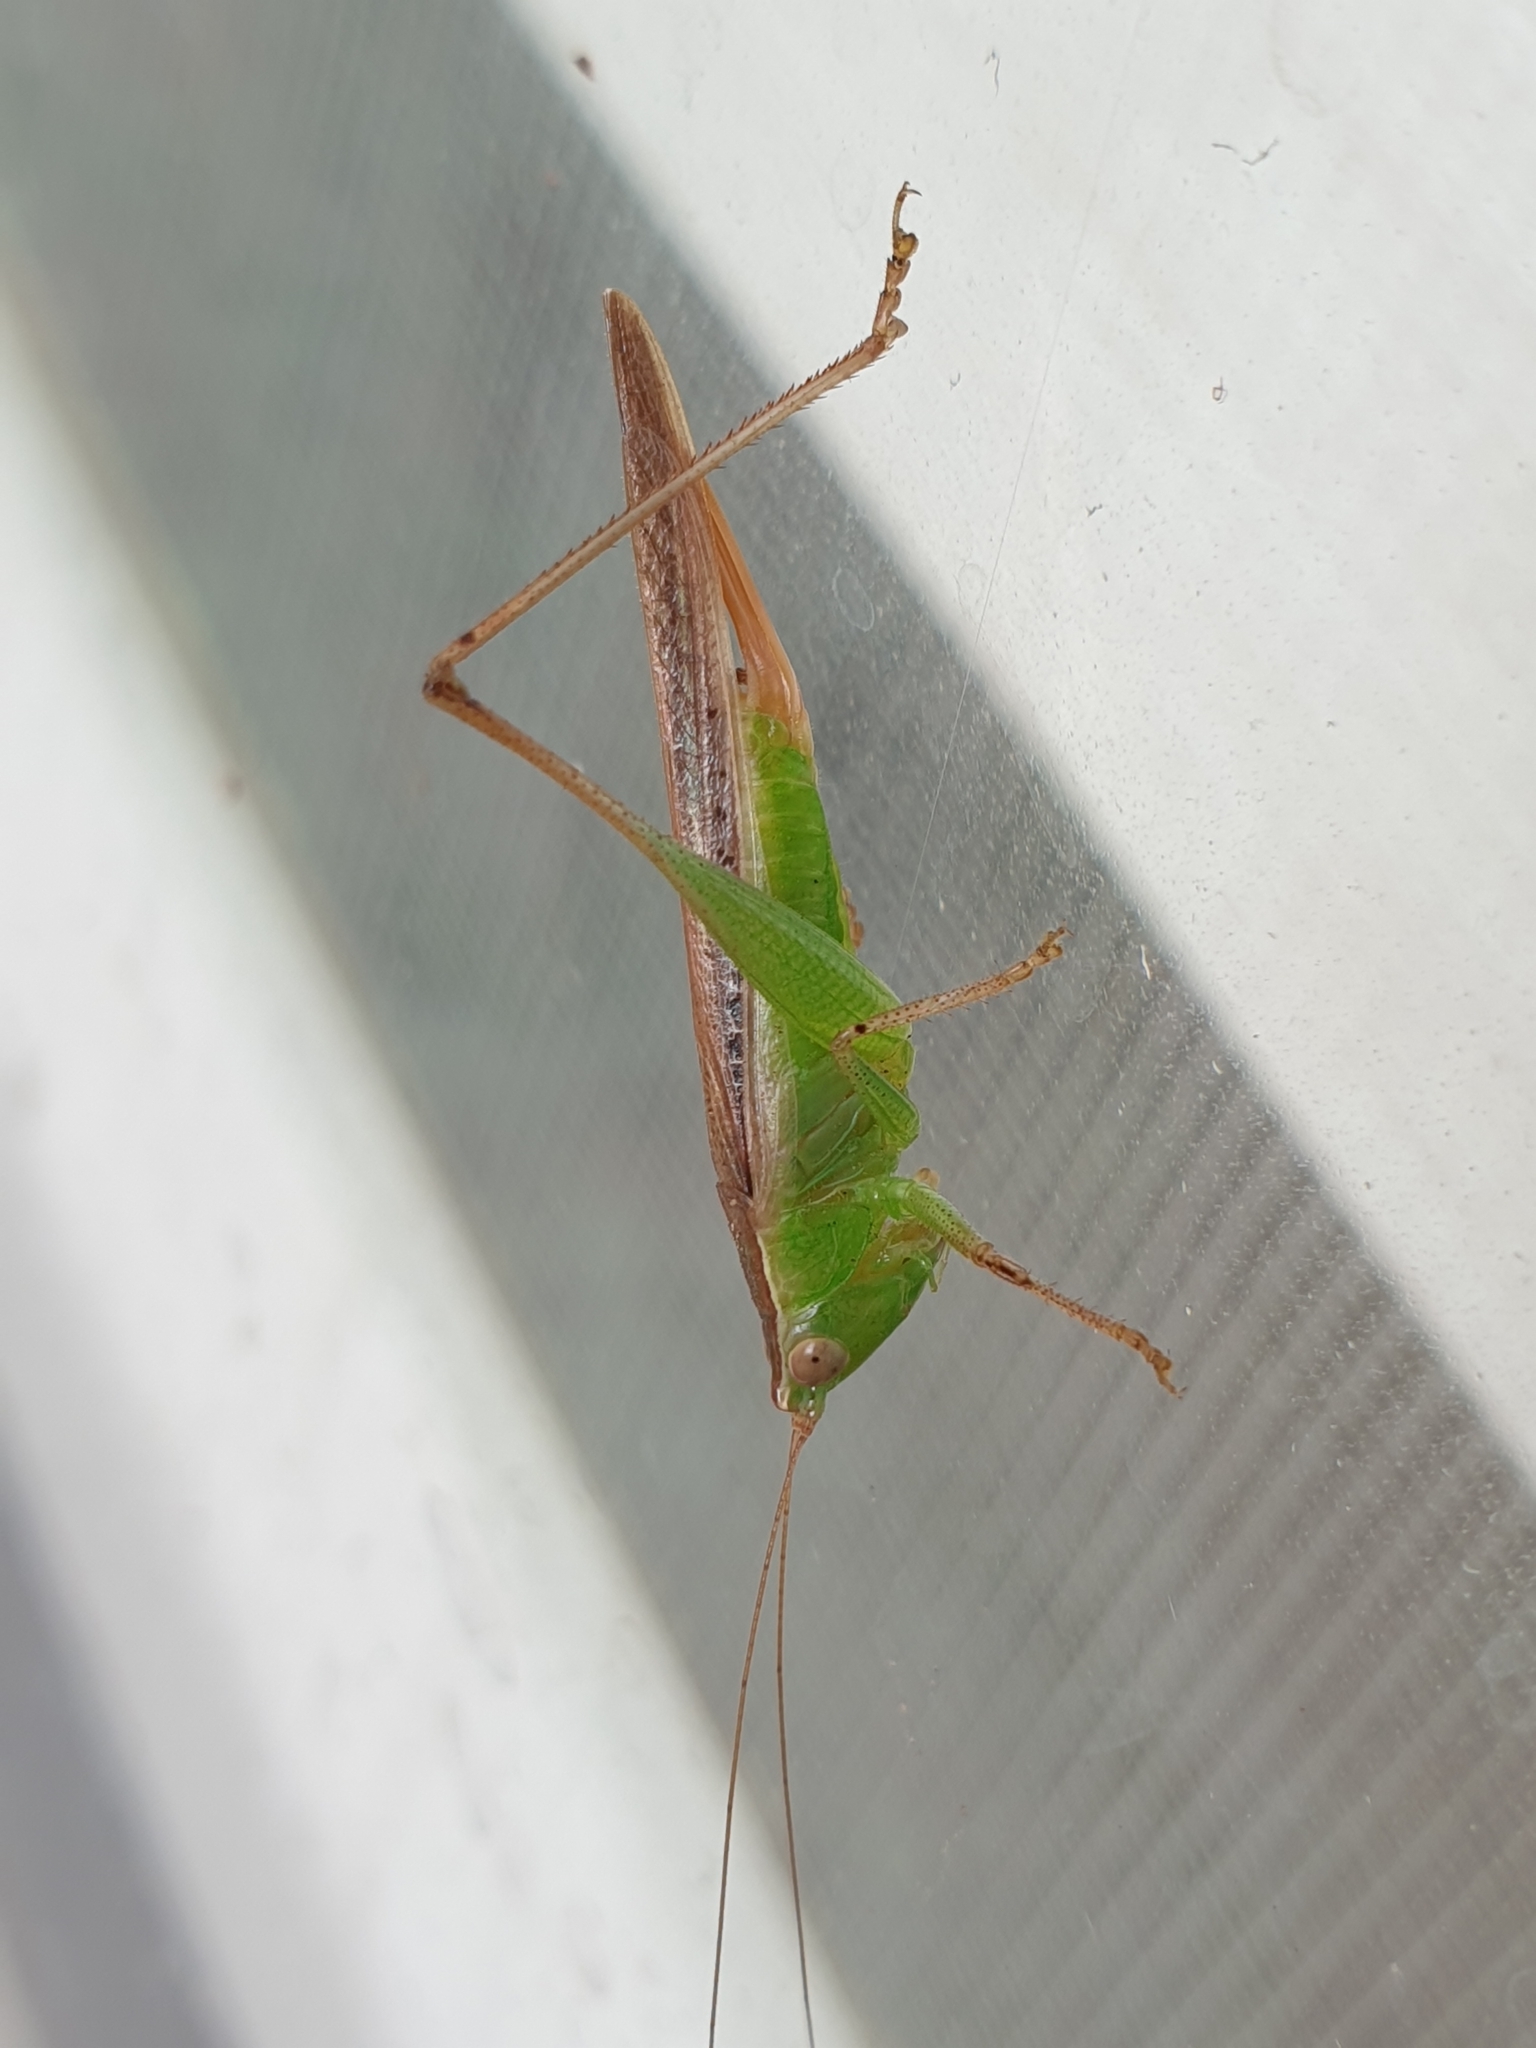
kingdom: Animalia
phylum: Arthropoda
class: Insecta
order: Orthoptera
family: Tettigoniidae
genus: Conocephalus
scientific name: Conocephalus maculatus
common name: Spotted meadow katydid
